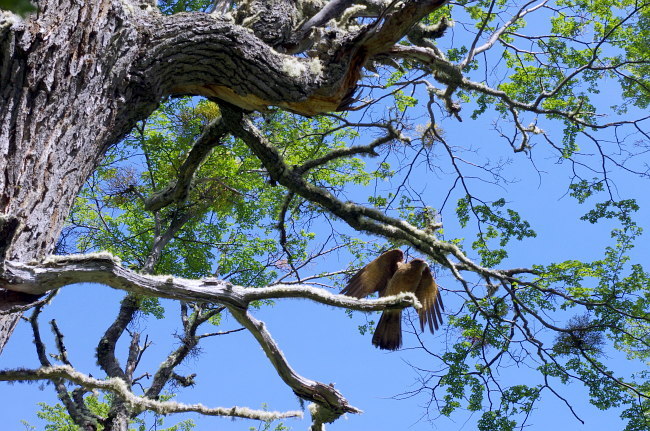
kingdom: Animalia
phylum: Chordata
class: Aves
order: Falconiformes
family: Falconidae
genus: Daptrius
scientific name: Daptrius
